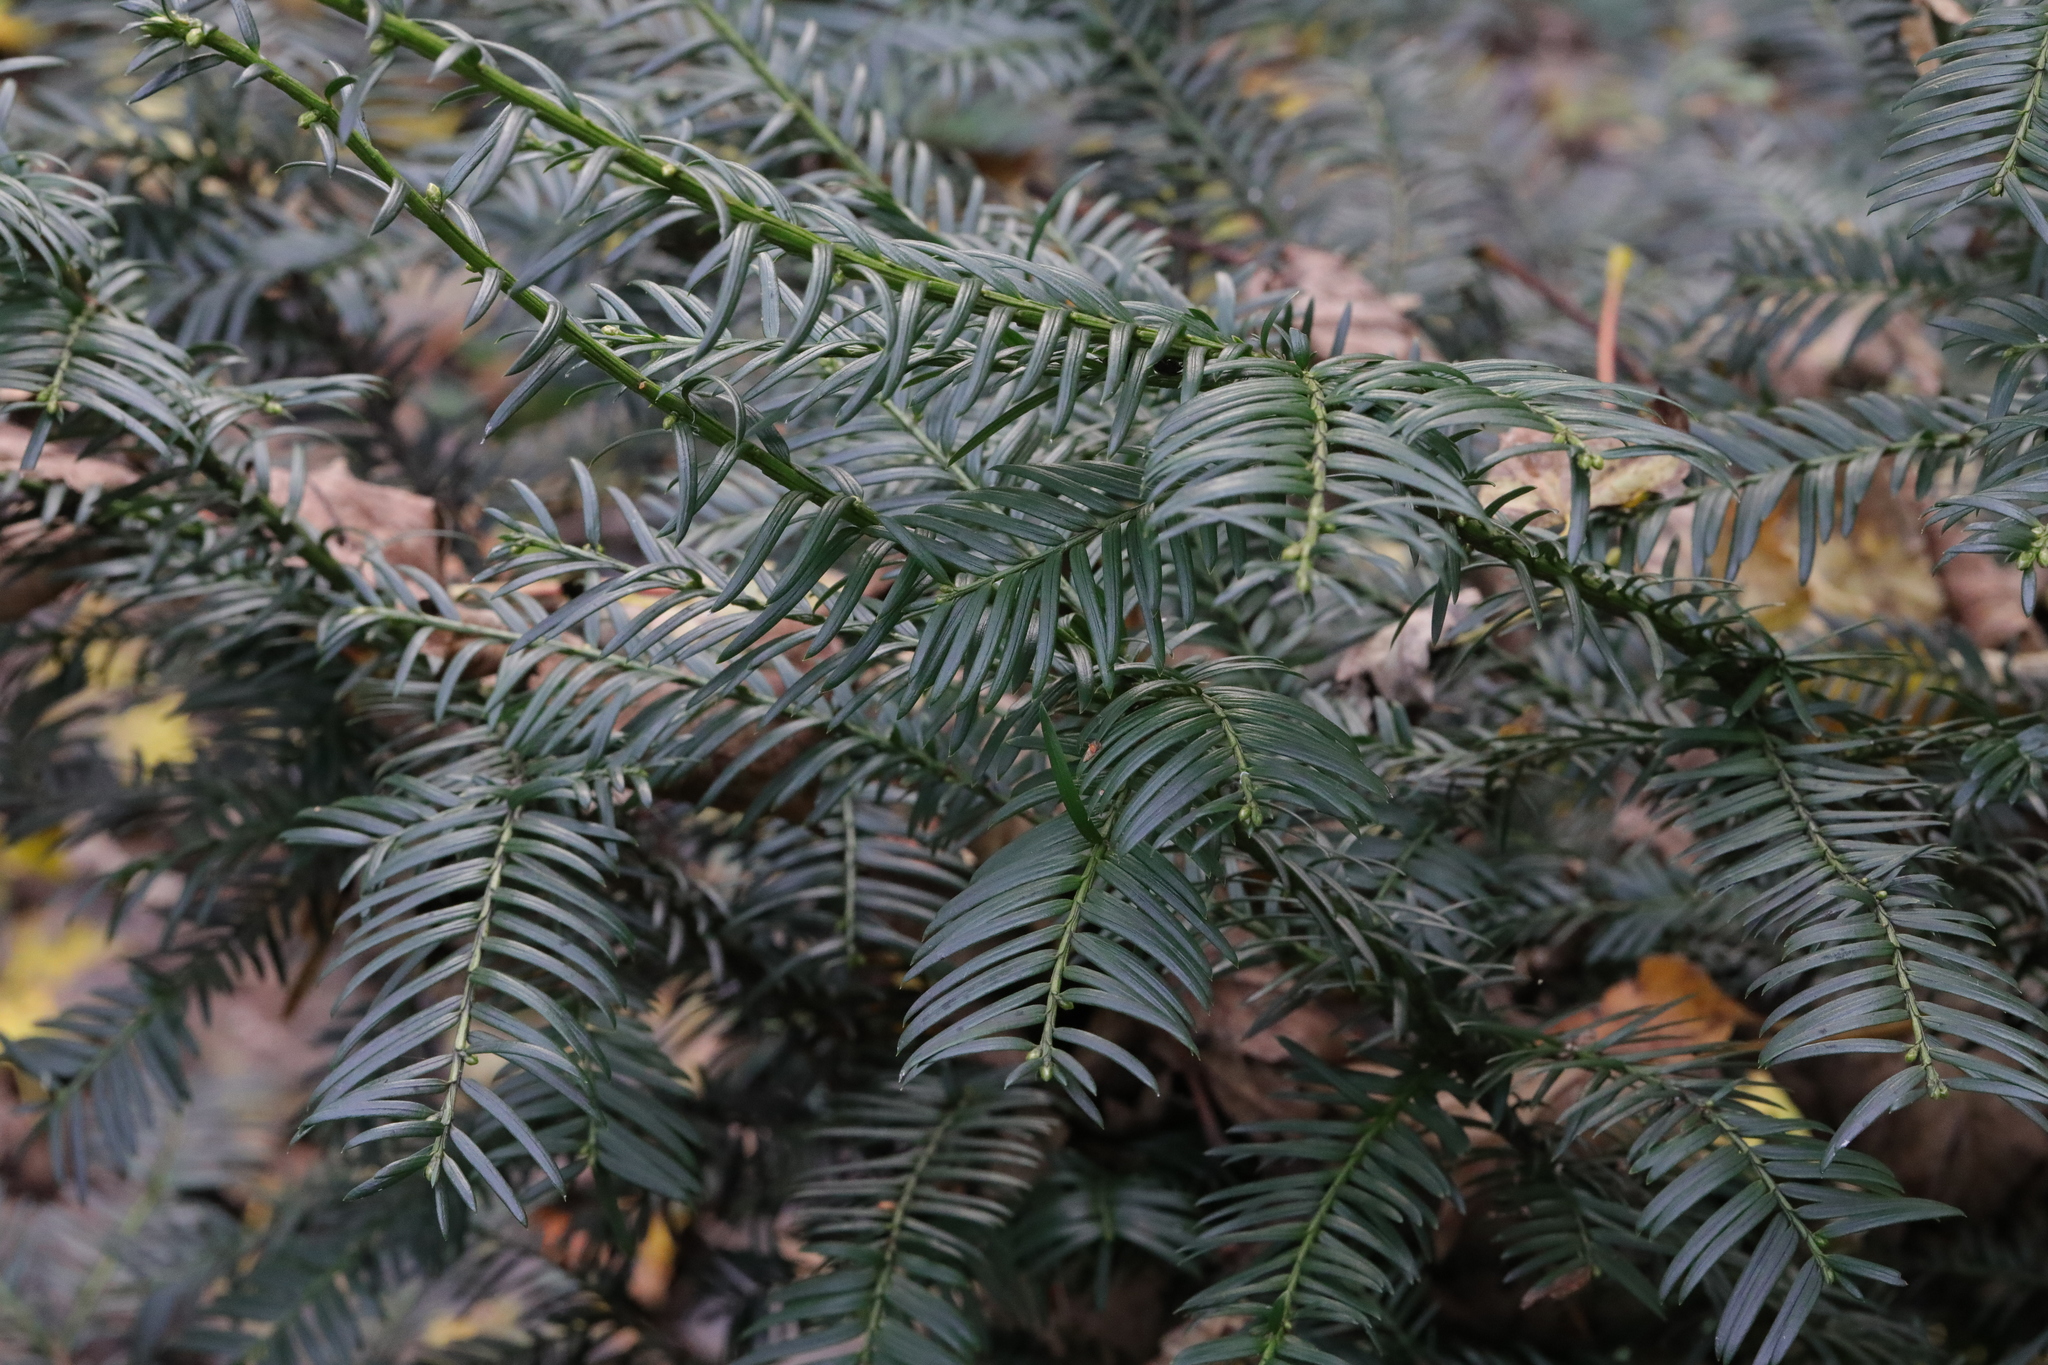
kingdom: Plantae
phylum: Tracheophyta
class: Pinopsida
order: Pinales
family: Taxaceae
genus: Taxus
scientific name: Taxus baccata
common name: Yew
